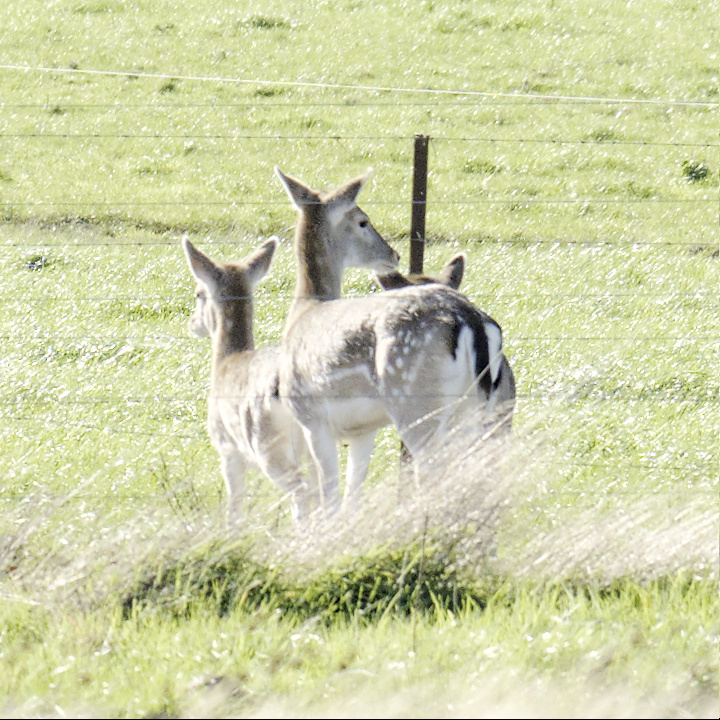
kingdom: Animalia
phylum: Chordata
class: Mammalia
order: Artiodactyla
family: Cervidae
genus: Dama
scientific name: Dama dama
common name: Fallow deer
